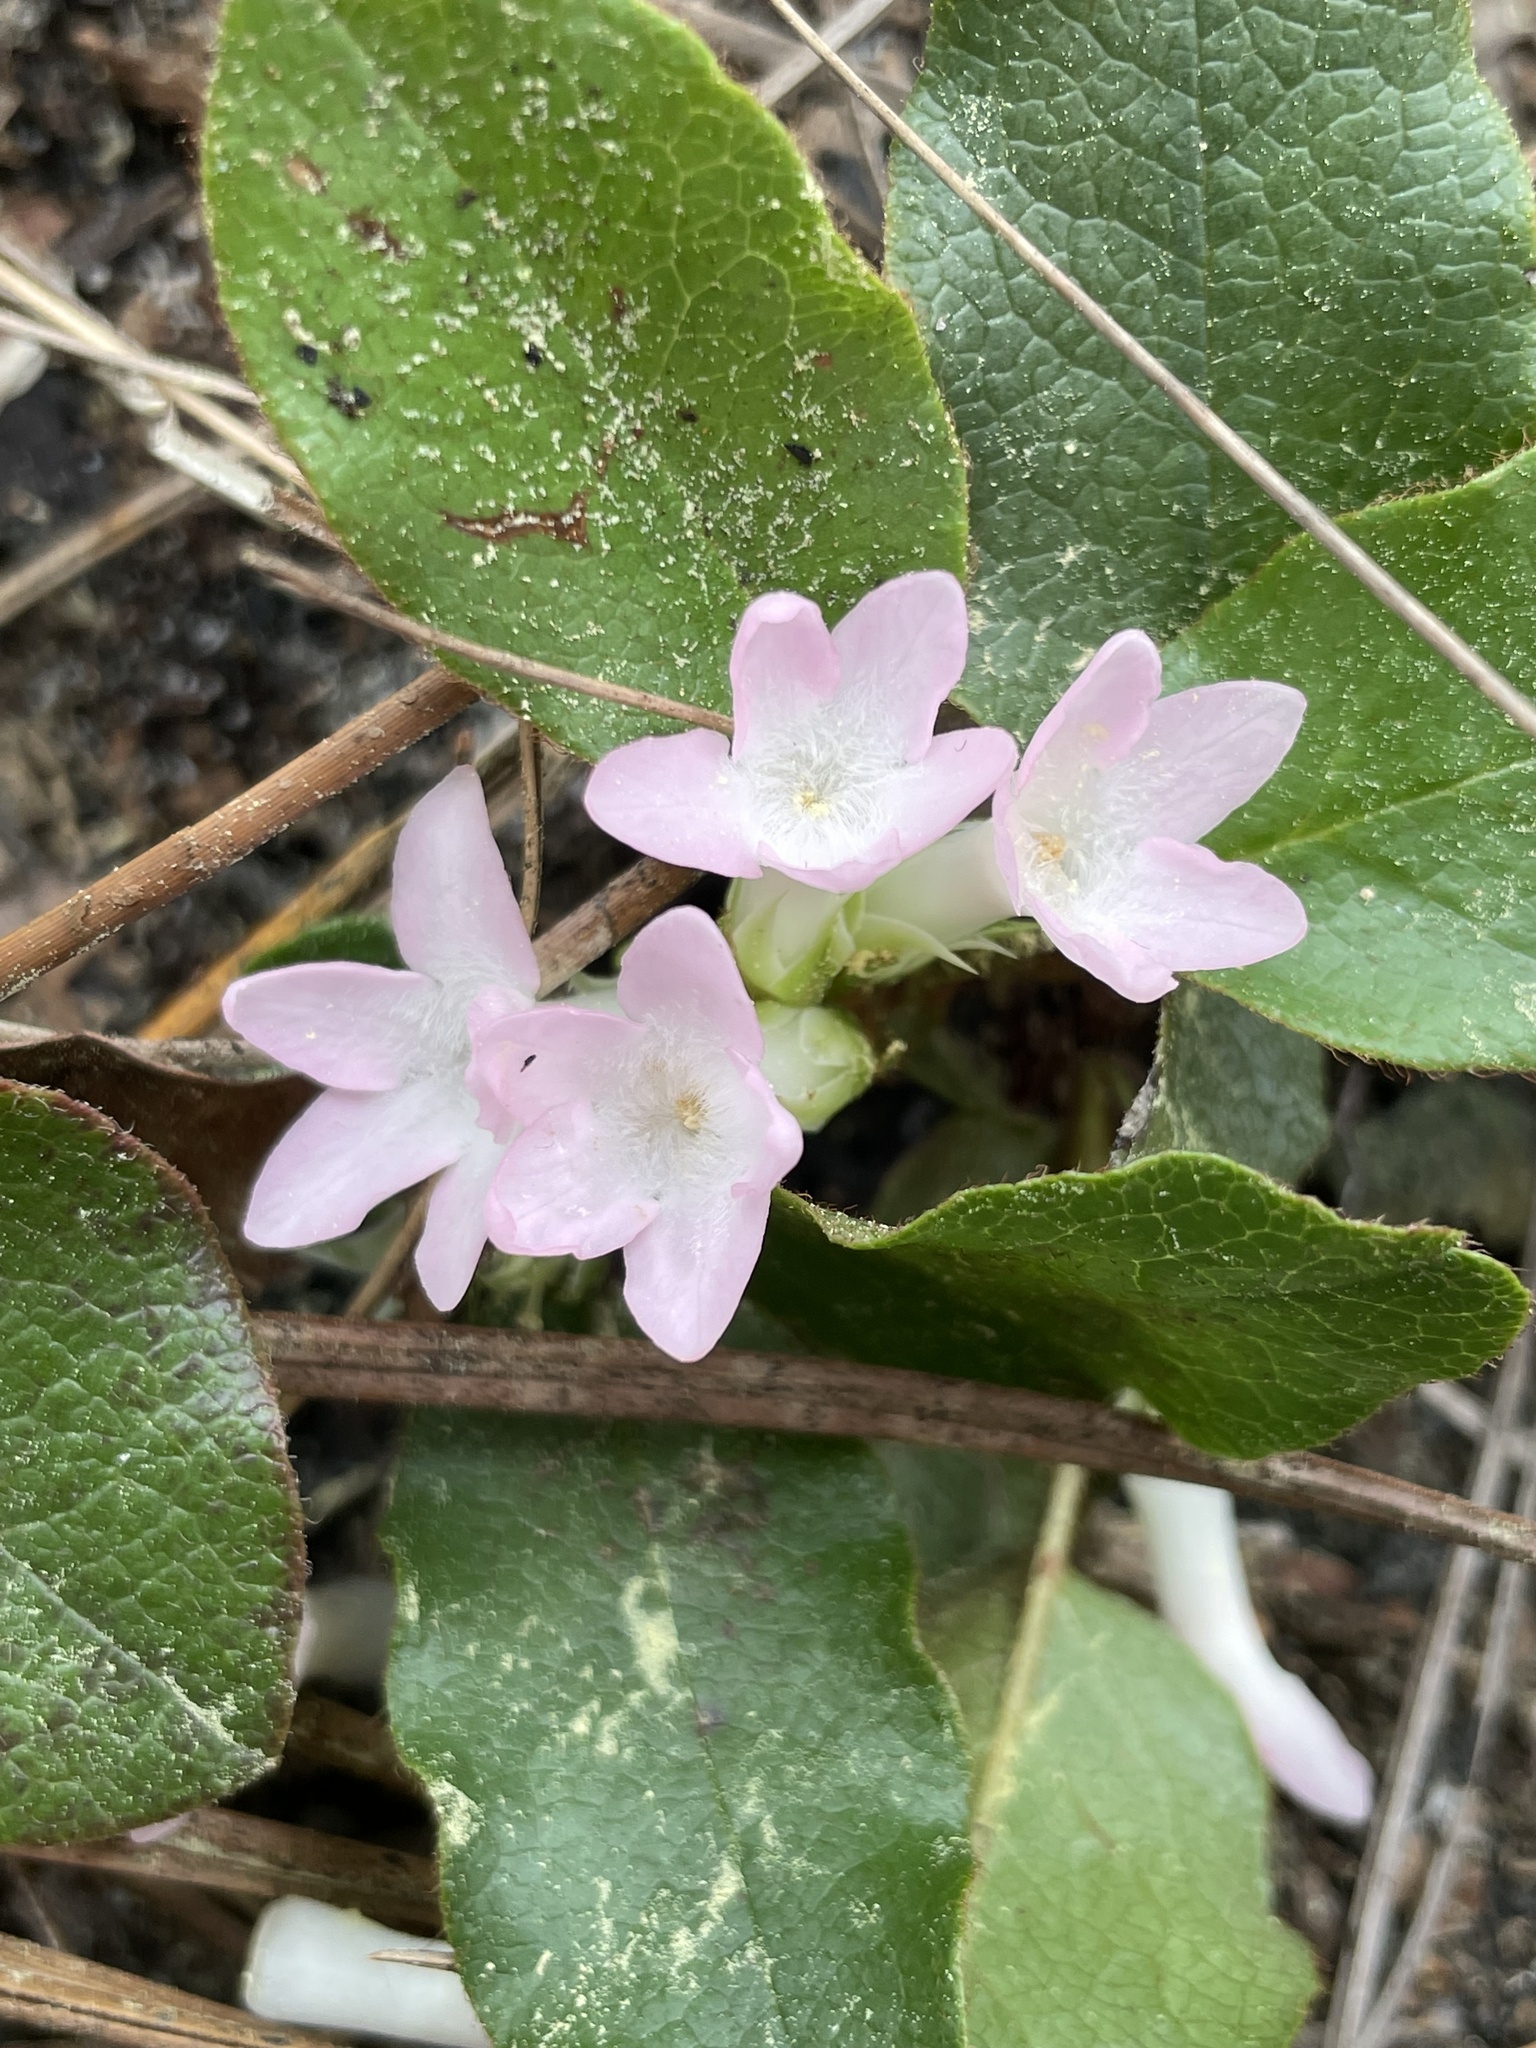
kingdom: Plantae
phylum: Tracheophyta
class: Magnoliopsida
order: Ericales
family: Ericaceae
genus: Epigaea
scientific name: Epigaea repens
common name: Gravelroot
